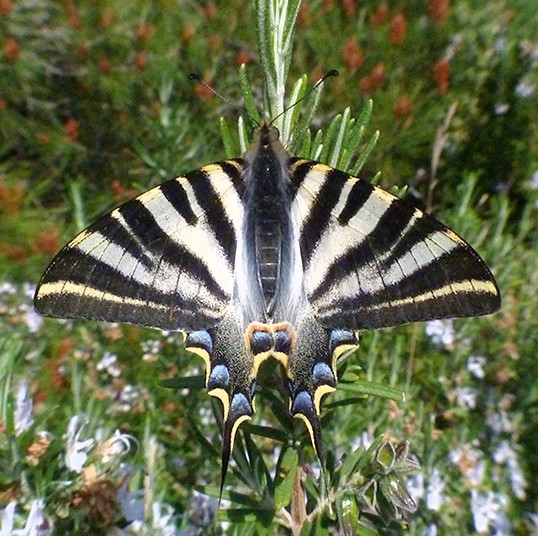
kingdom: Animalia
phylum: Arthropoda
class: Insecta
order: Lepidoptera
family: Papilionidae
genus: Iphiclides
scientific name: Iphiclides feisthamelii
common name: Iberian scarce swallowtail
